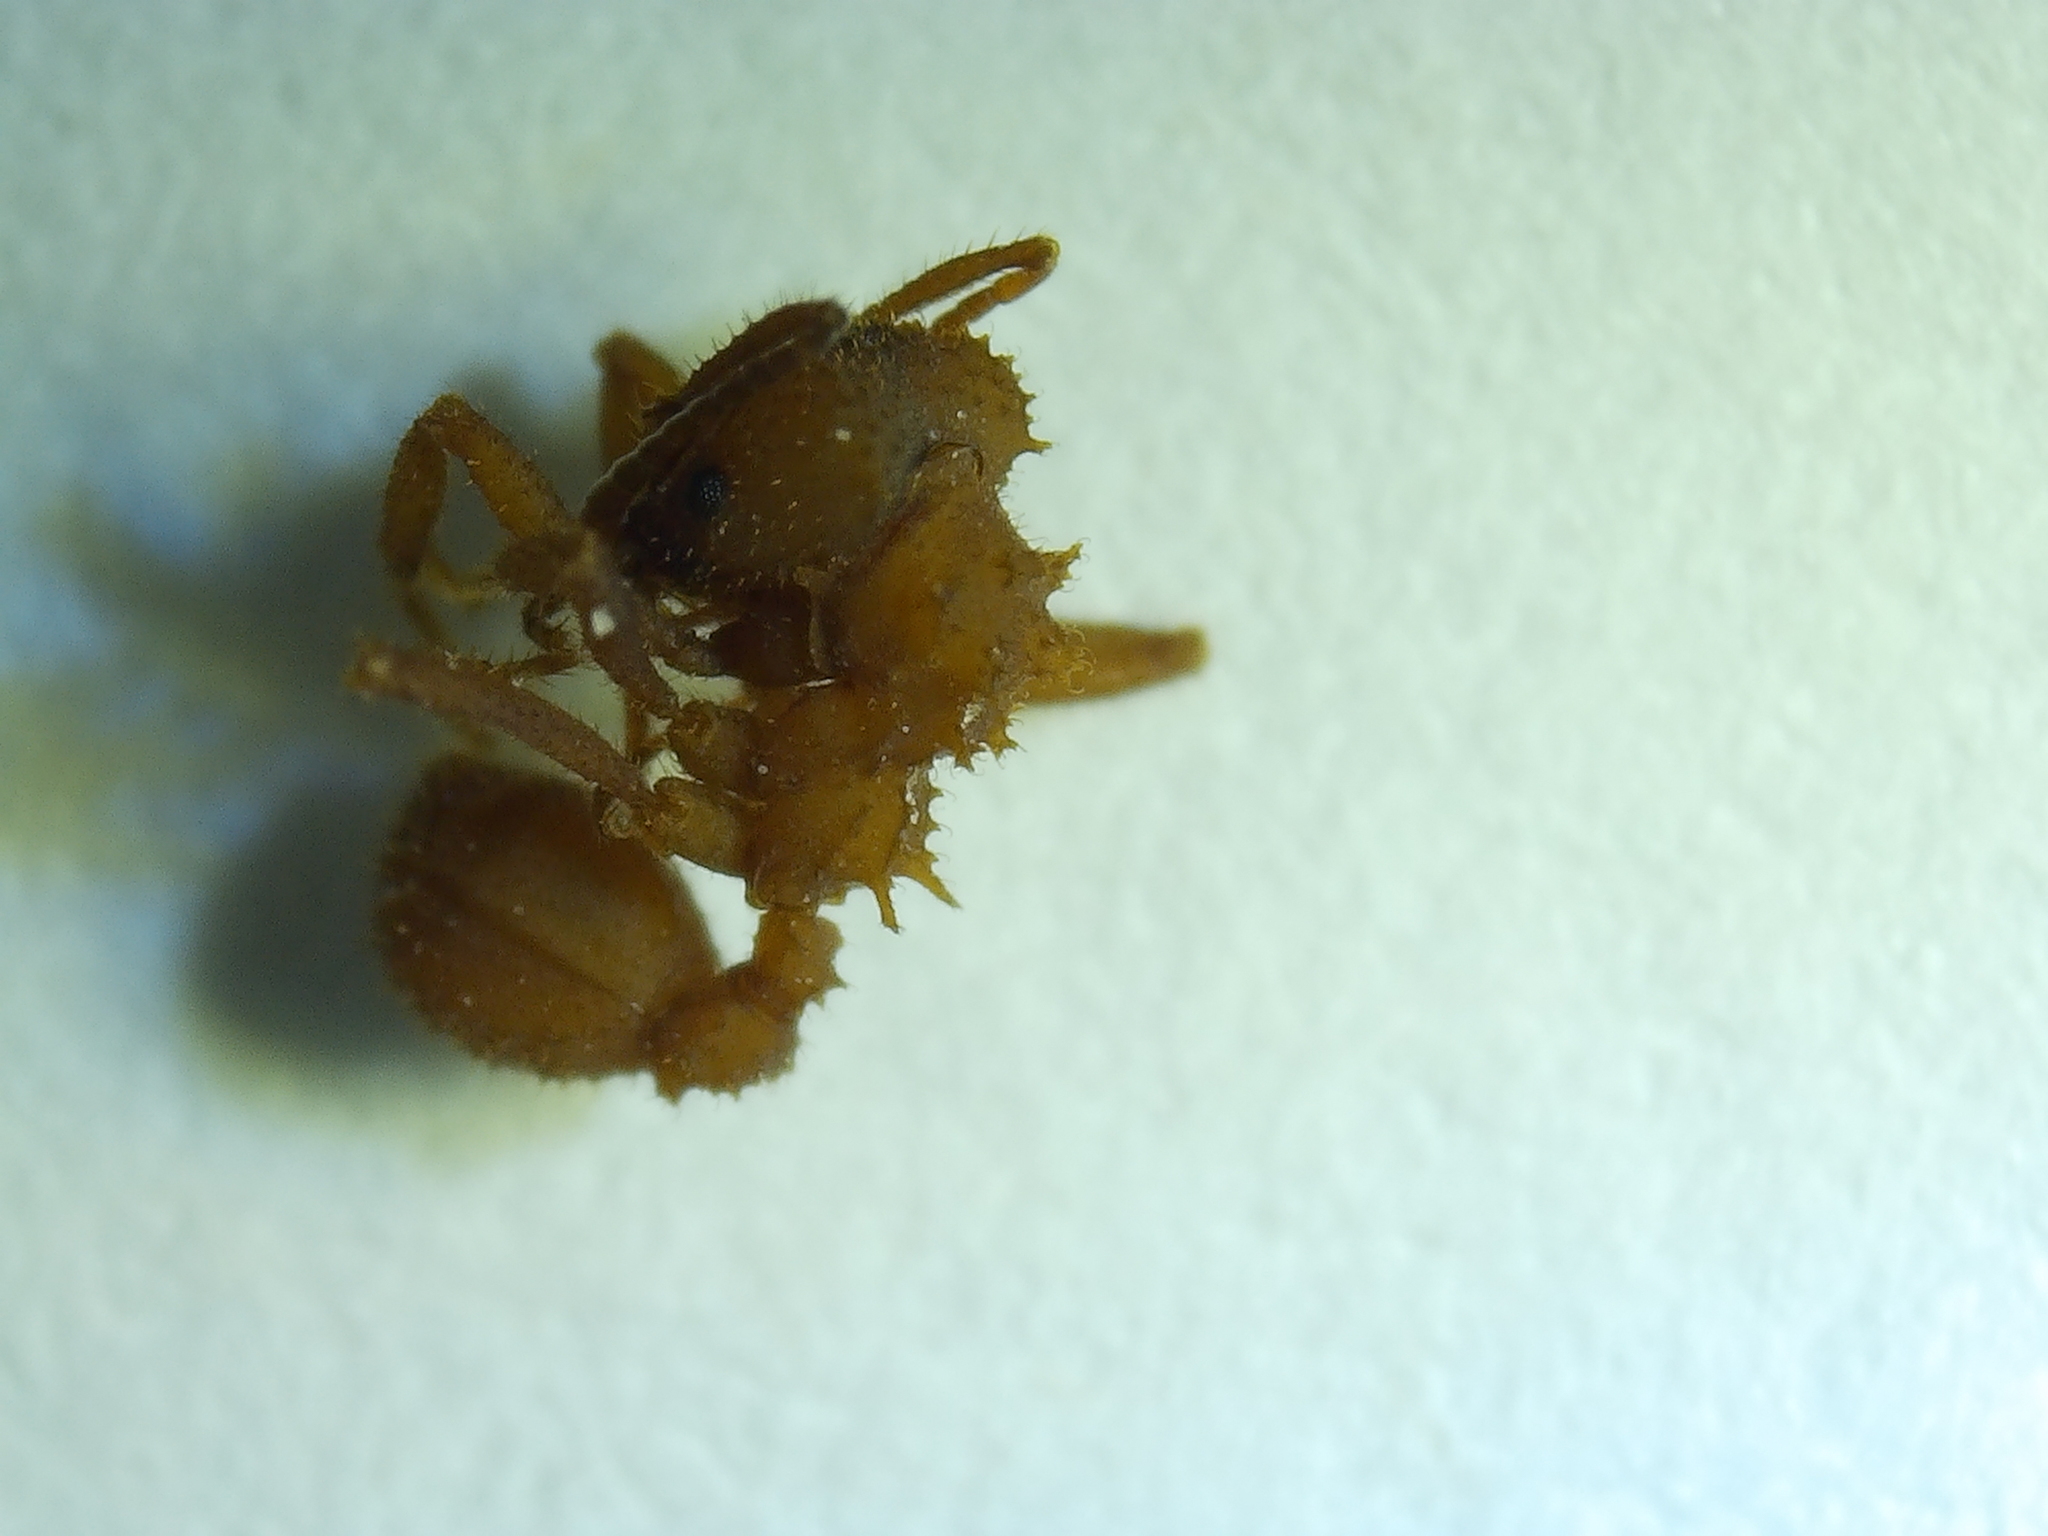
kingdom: Animalia
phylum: Arthropoda
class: Insecta
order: Hymenoptera
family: Formicidae
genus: Trachymyrmex
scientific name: Trachymyrmex septentrionalis
